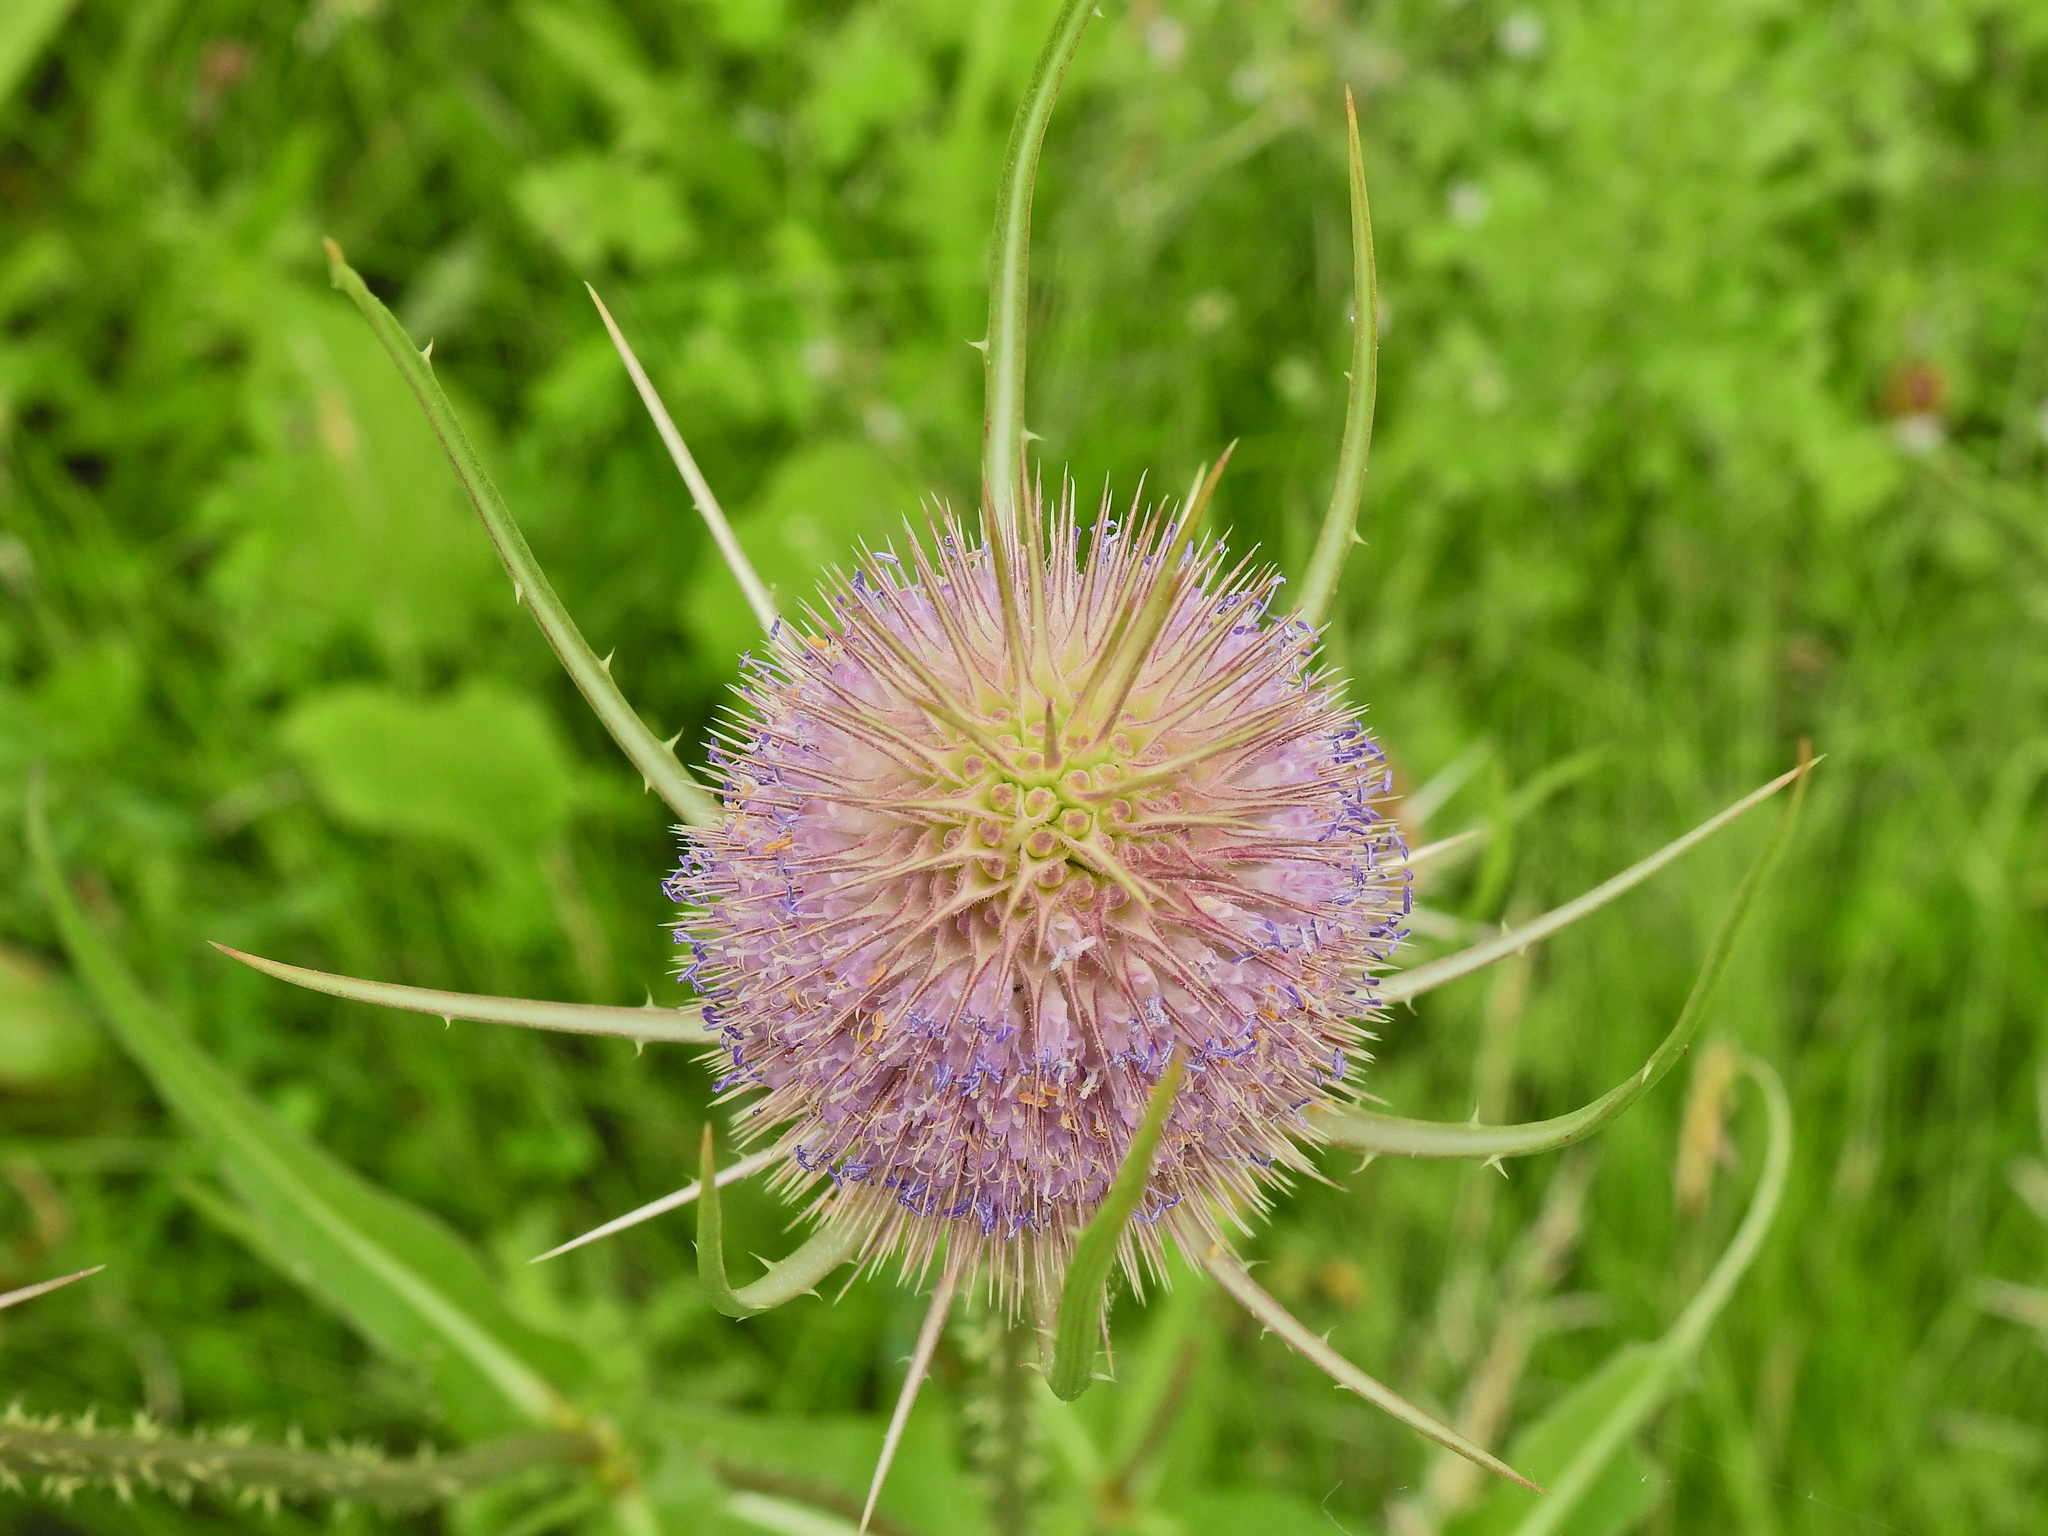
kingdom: Plantae
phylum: Tracheophyta
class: Magnoliopsida
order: Dipsacales
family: Caprifoliaceae
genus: Dipsacus
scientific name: Dipsacus fullonum
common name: Teasel
